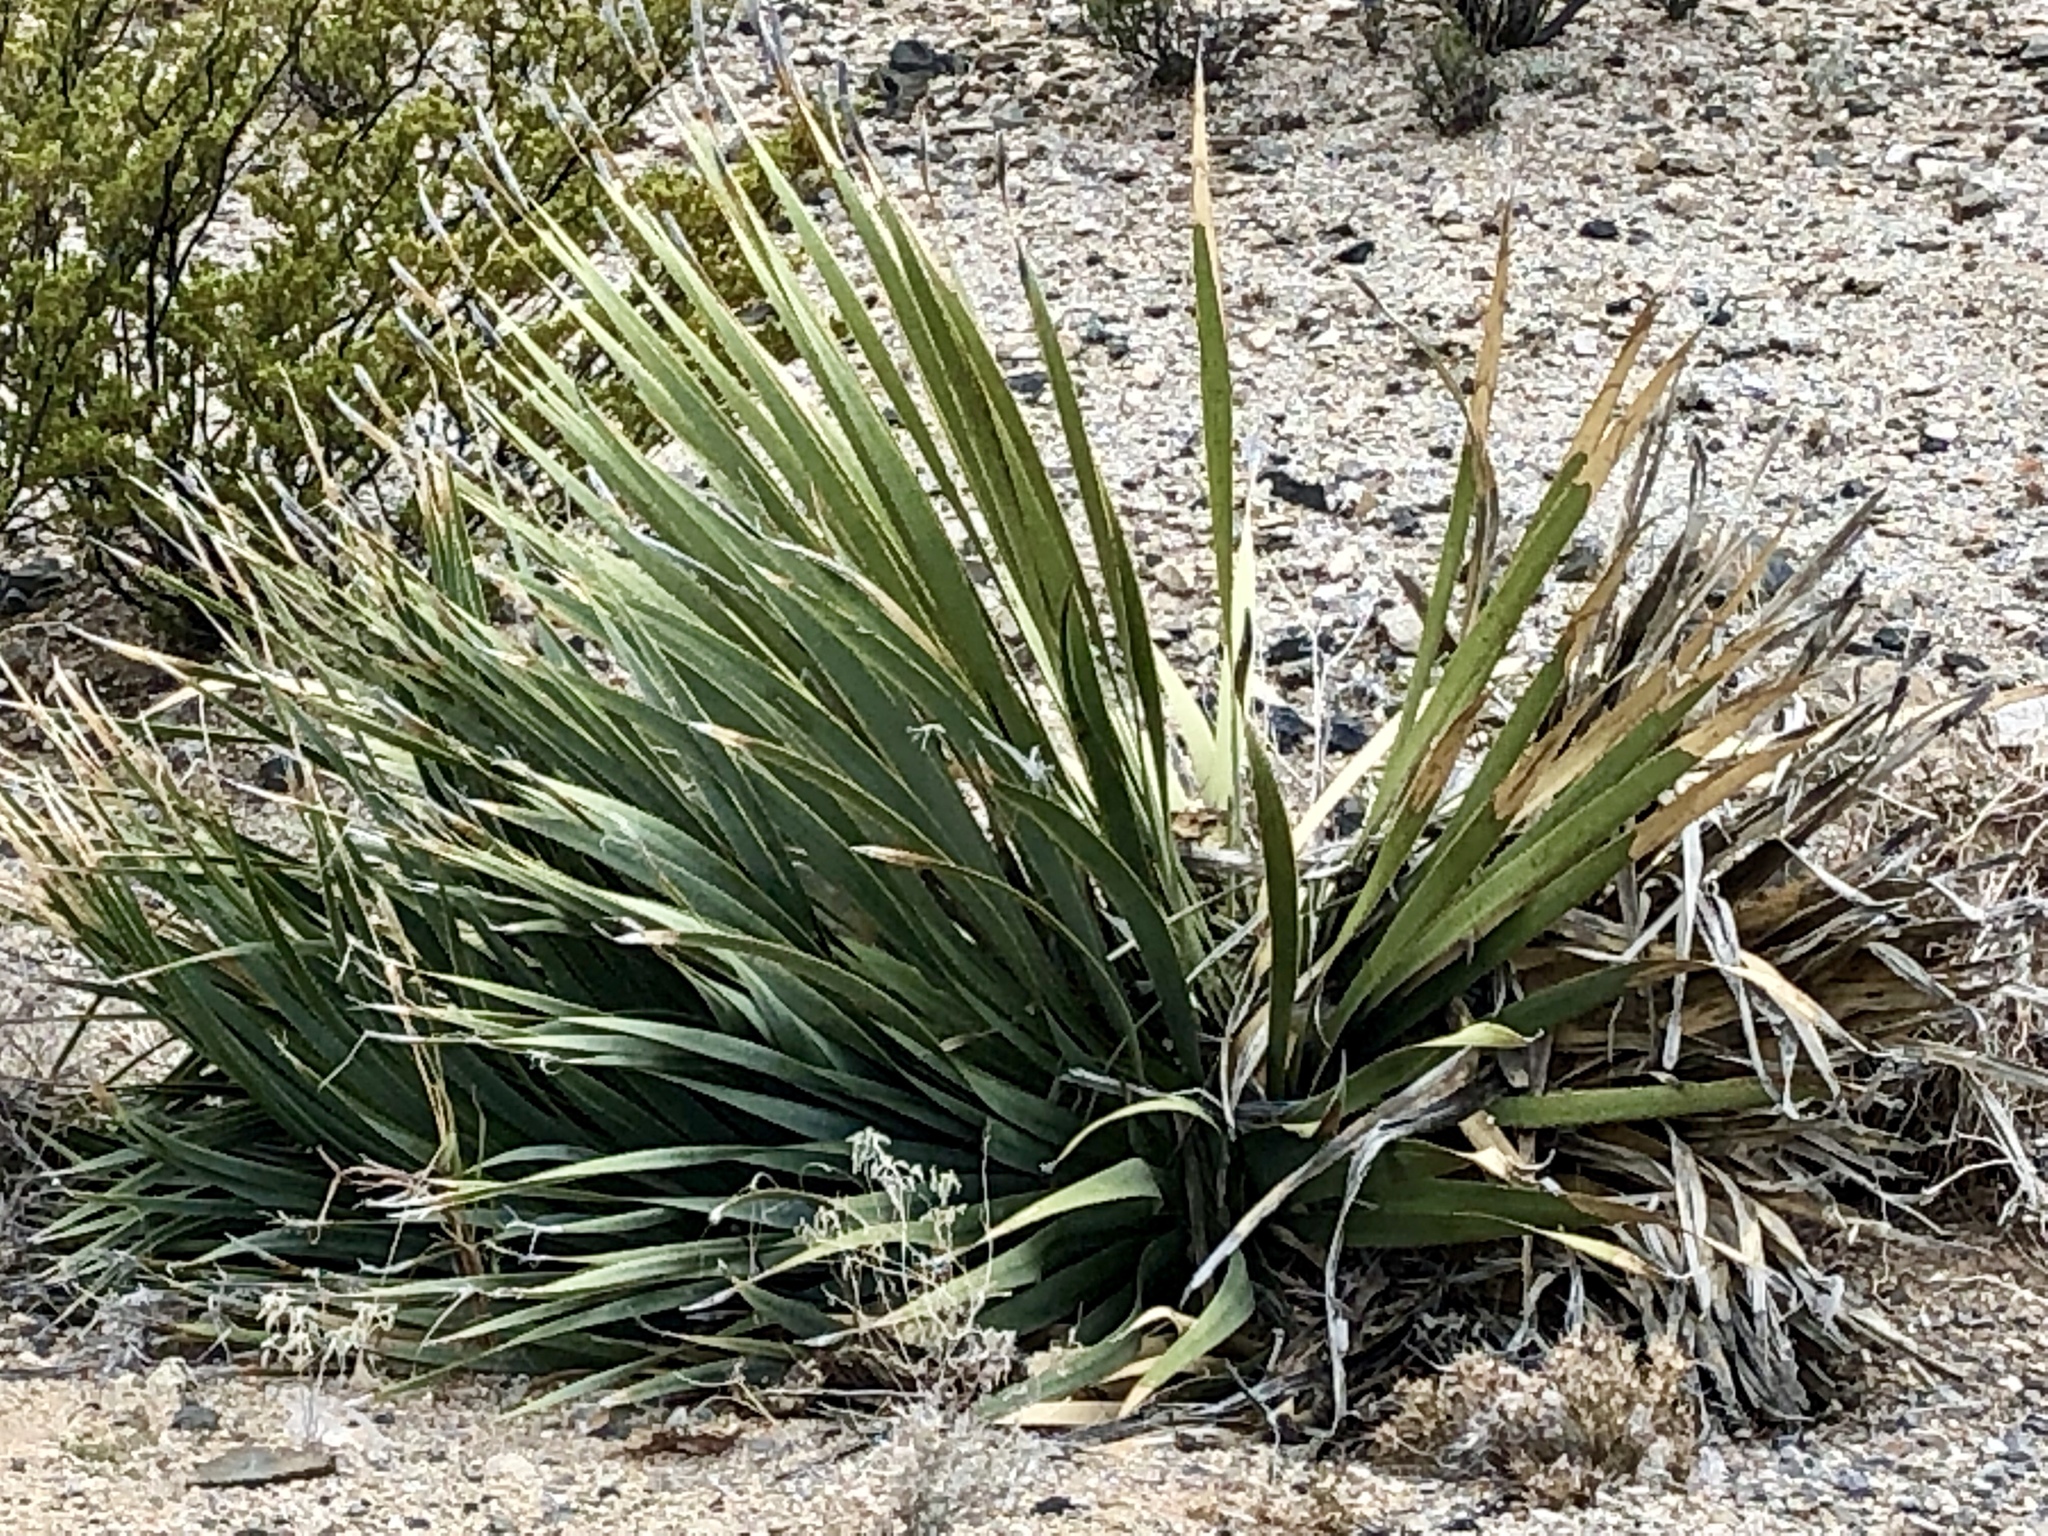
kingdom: Plantae
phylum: Tracheophyta
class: Liliopsida
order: Asparagales
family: Asparagaceae
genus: Dasylirion
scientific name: Dasylirion wheeleri
